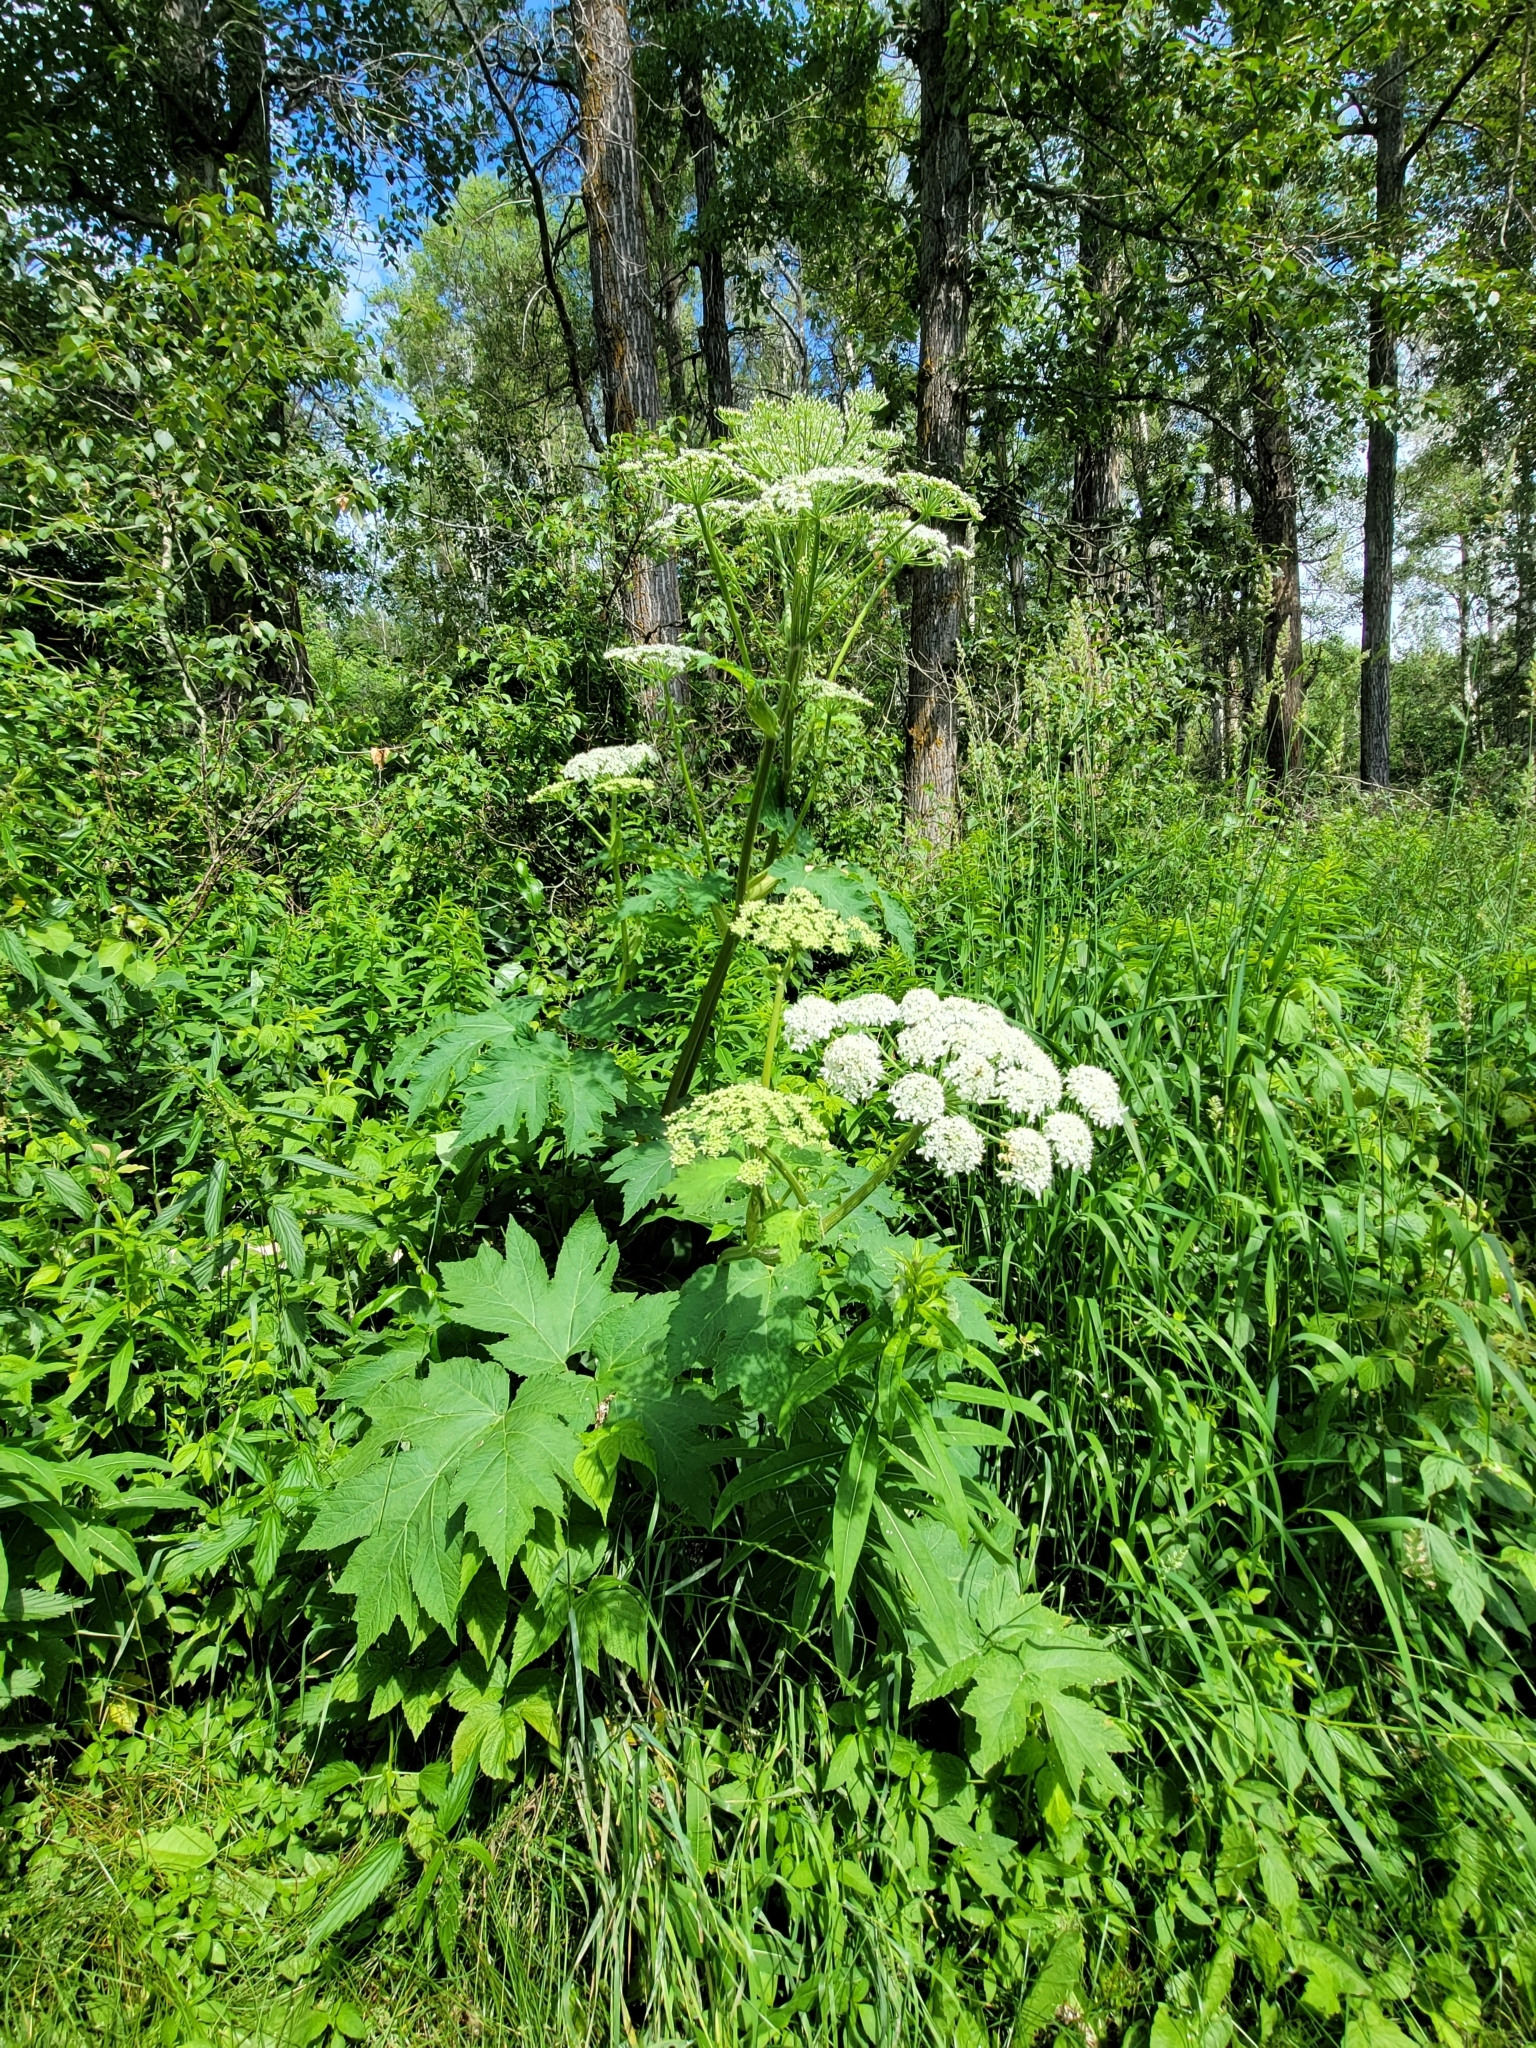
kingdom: Plantae
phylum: Tracheophyta
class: Magnoliopsida
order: Apiales
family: Apiaceae
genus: Heracleum
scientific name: Heracleum maximum
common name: American cow parsnip
